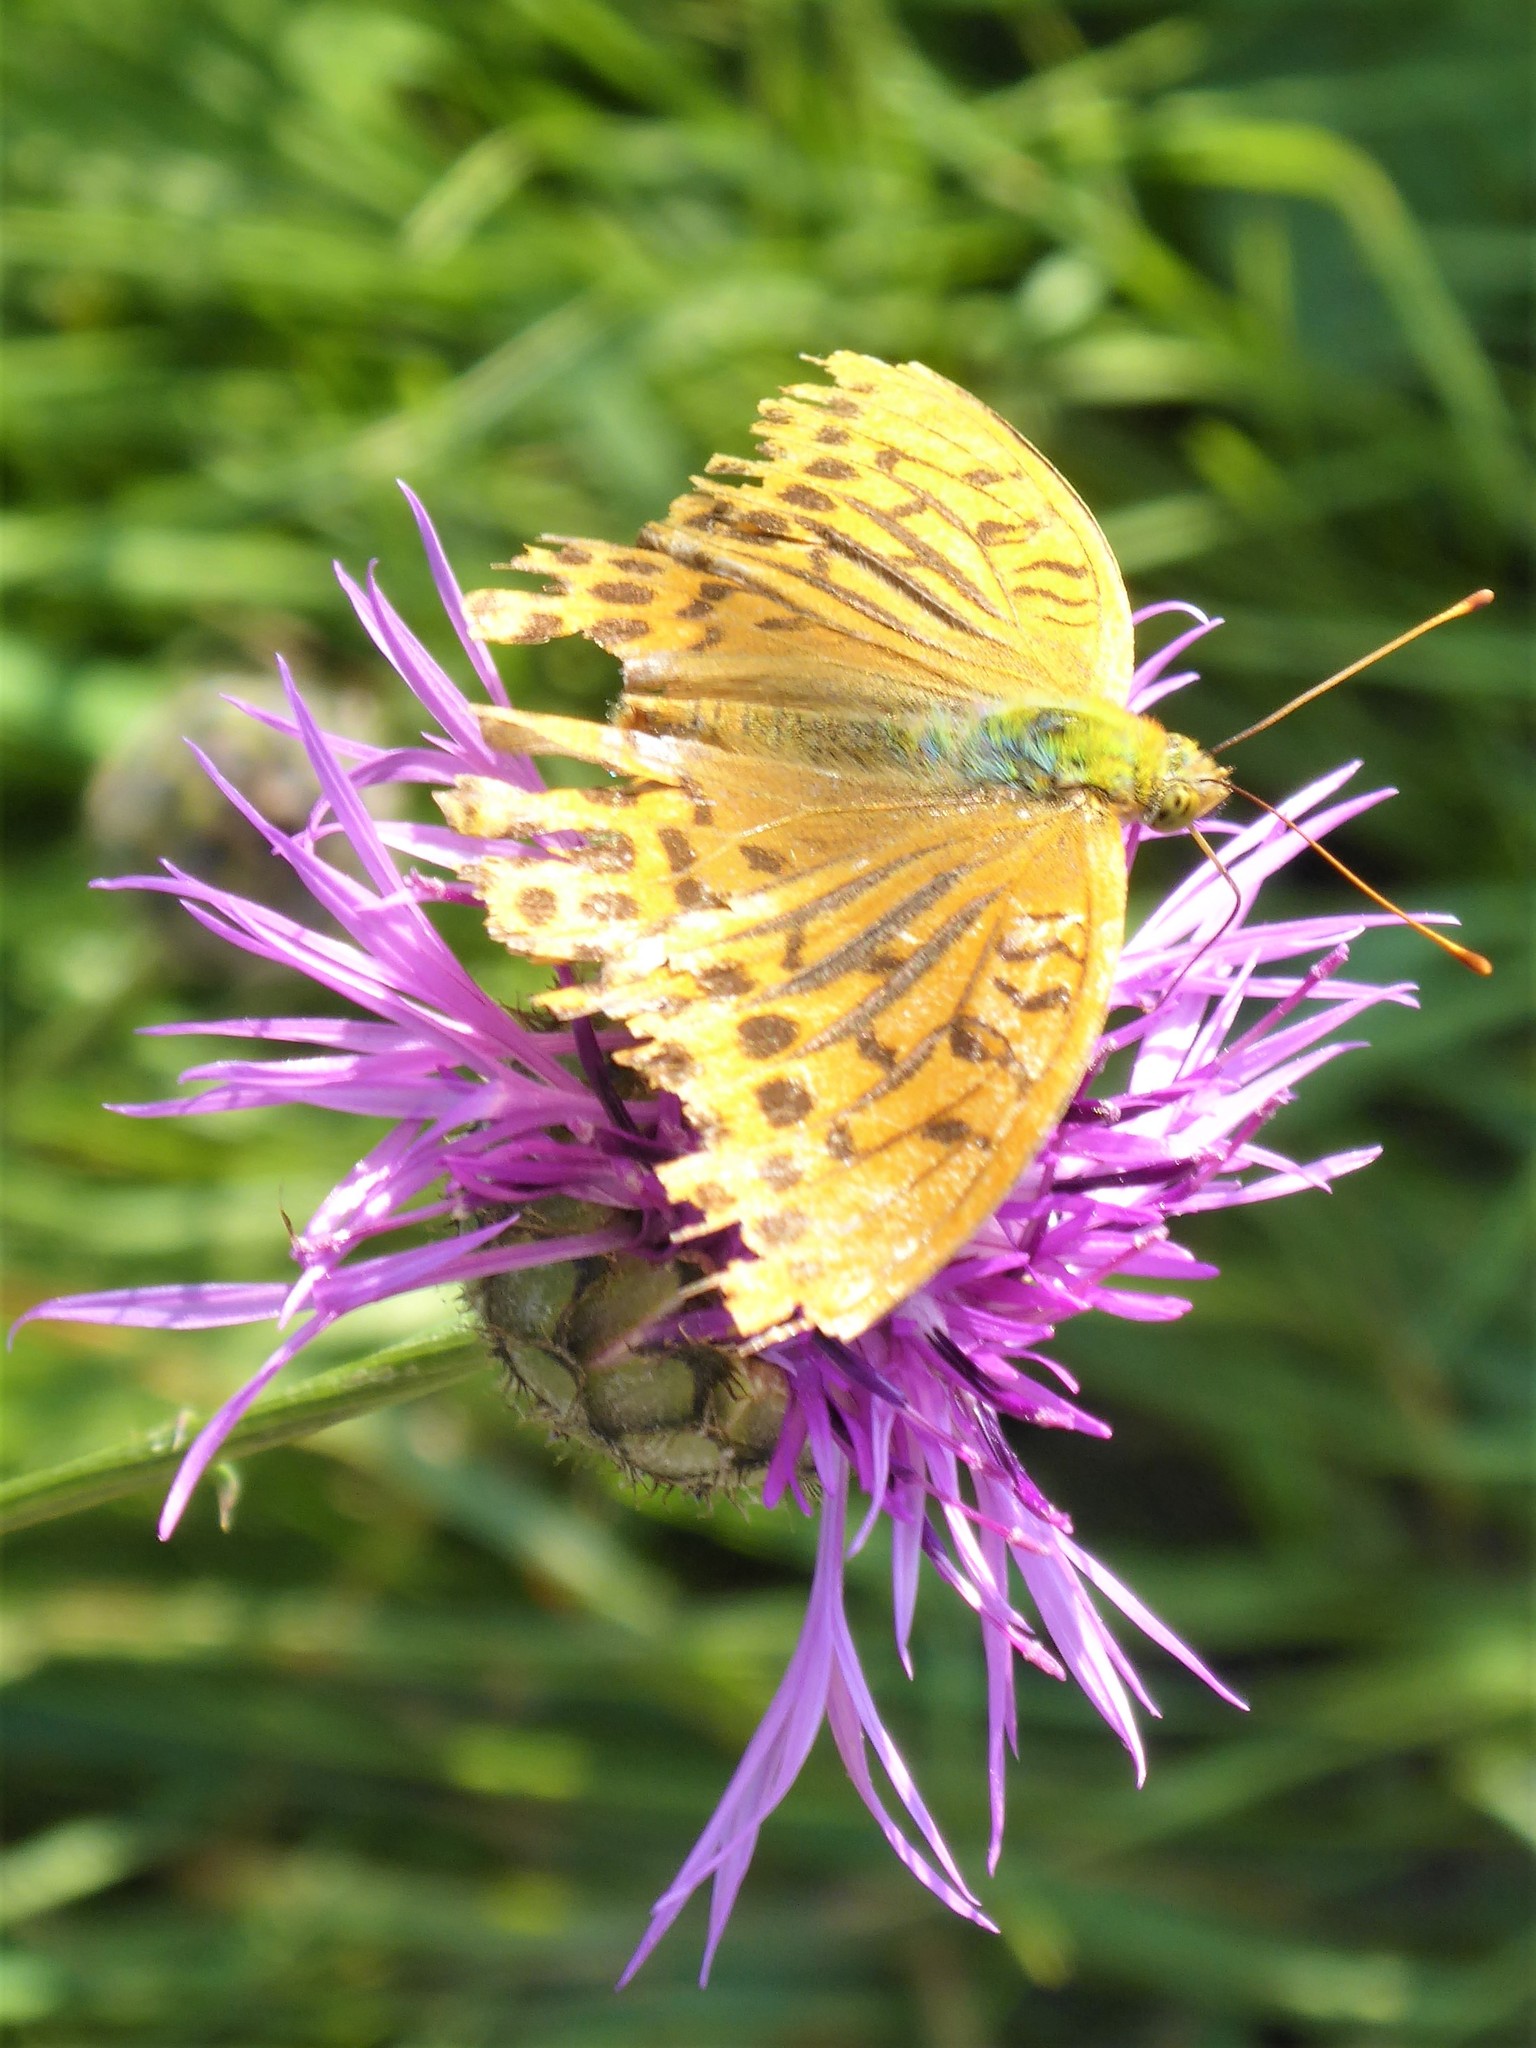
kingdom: Animalia
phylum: Arthropoda
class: Insecta
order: Lepidoptera
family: Nymphalidae
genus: Argynnis
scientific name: Argynnis paphia
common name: Silver-washed fritillary
